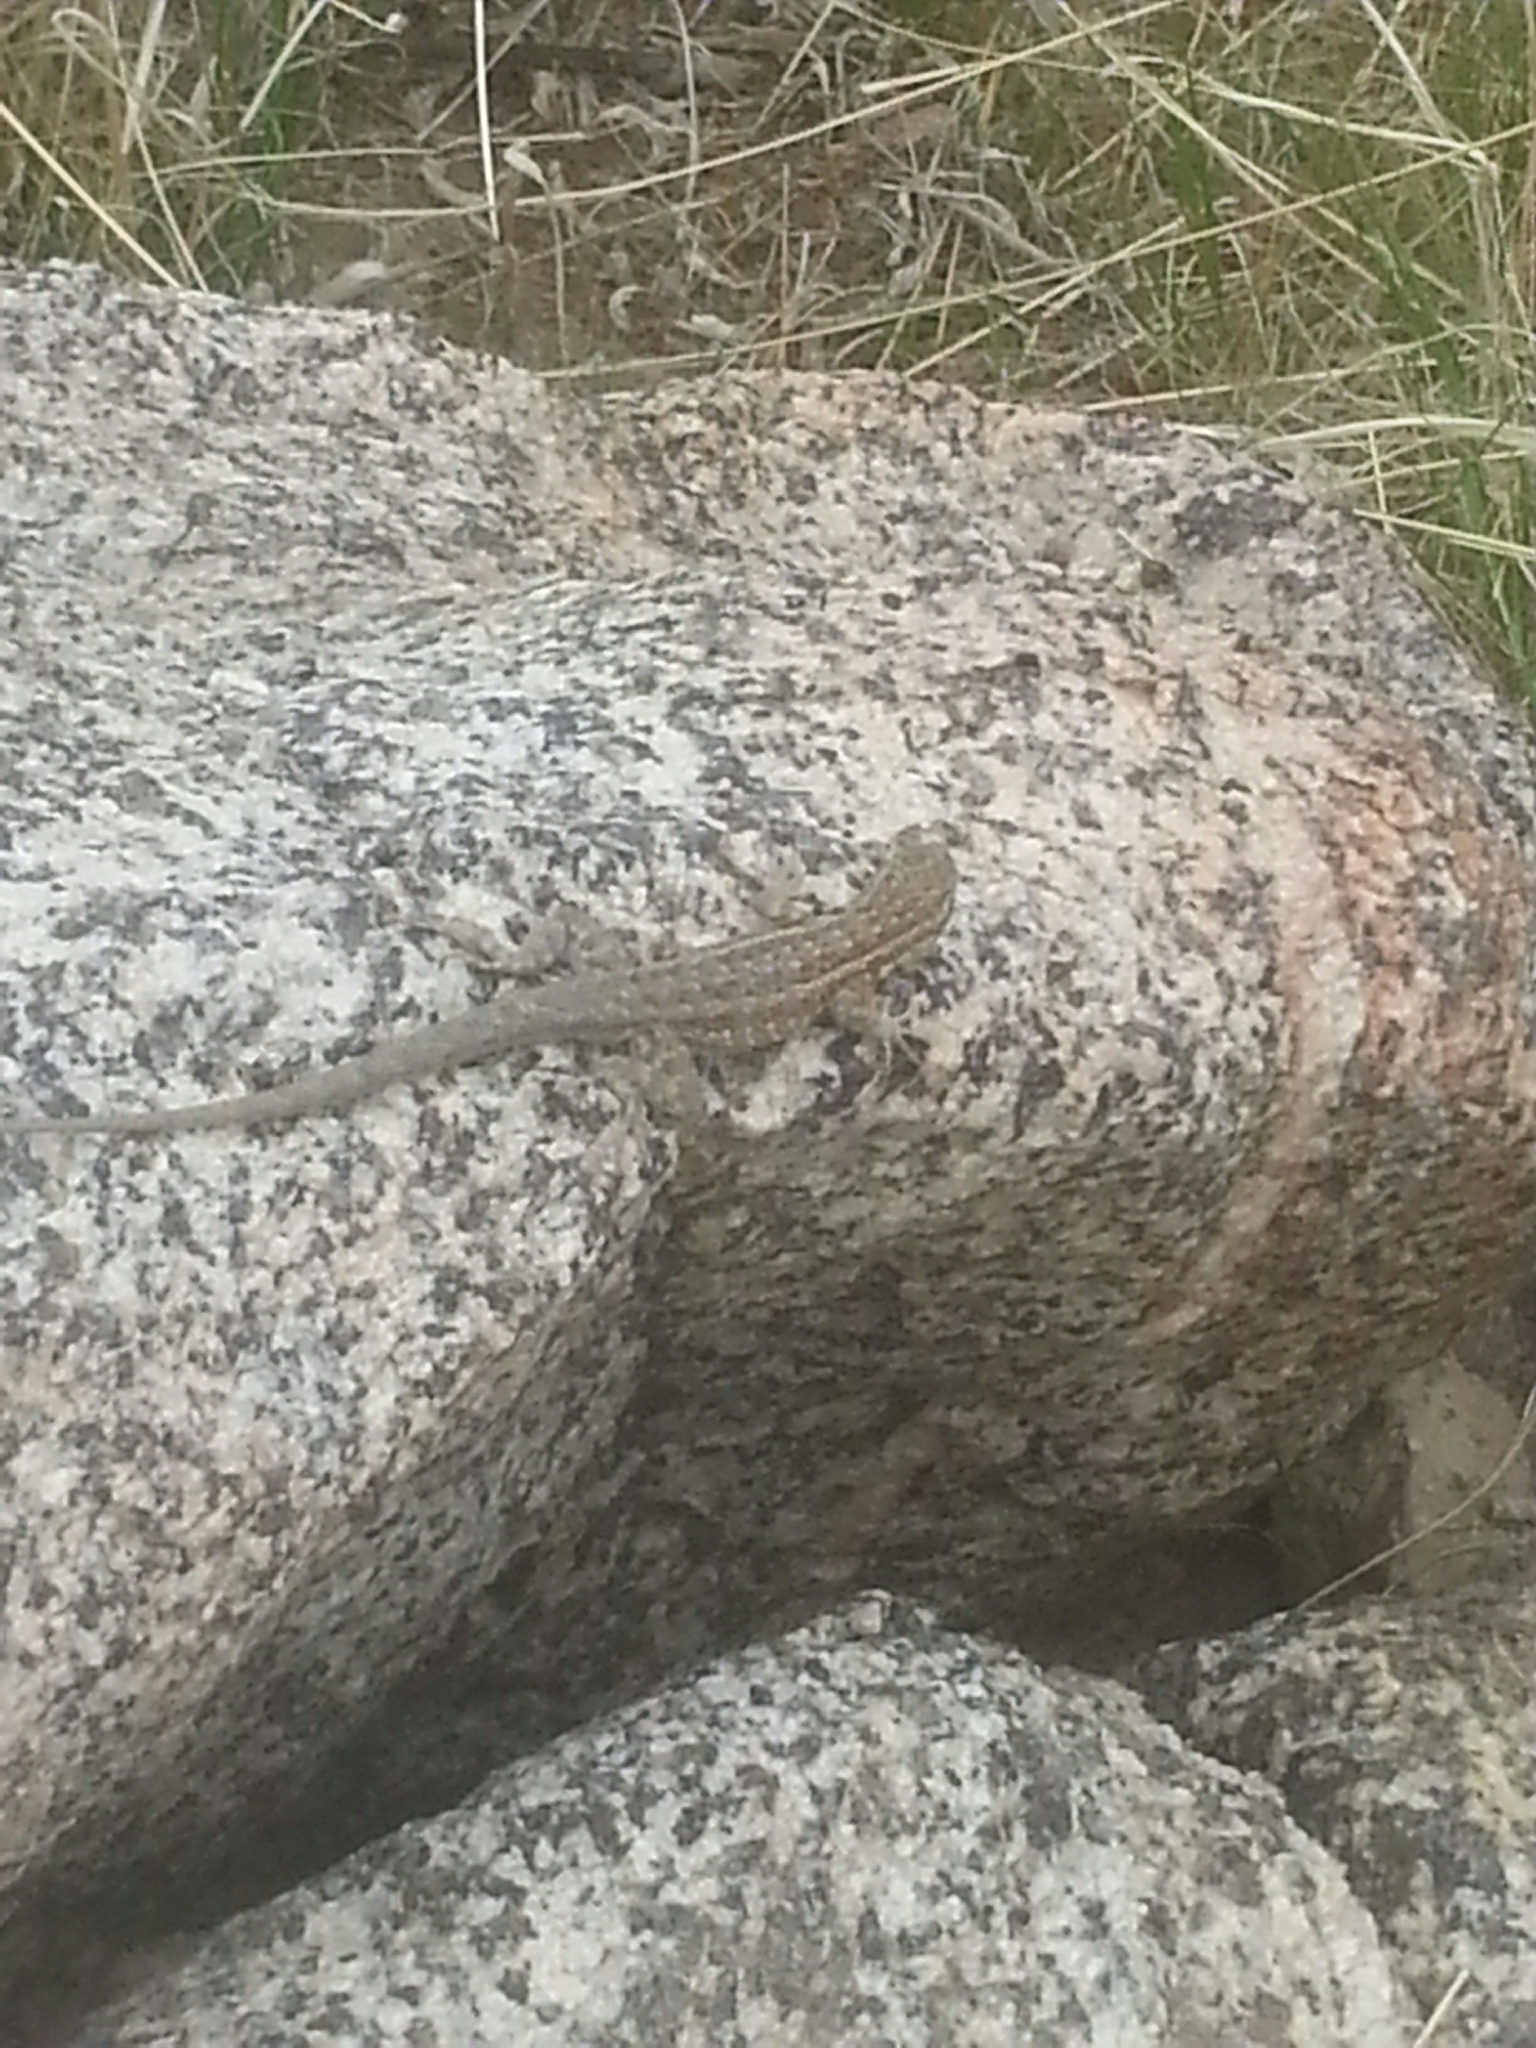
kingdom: Animalia
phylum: Chordata
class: Squamata
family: Phrynosomatidae
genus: Uta
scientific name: Uta stansburiana
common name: Side-blotched lizard
